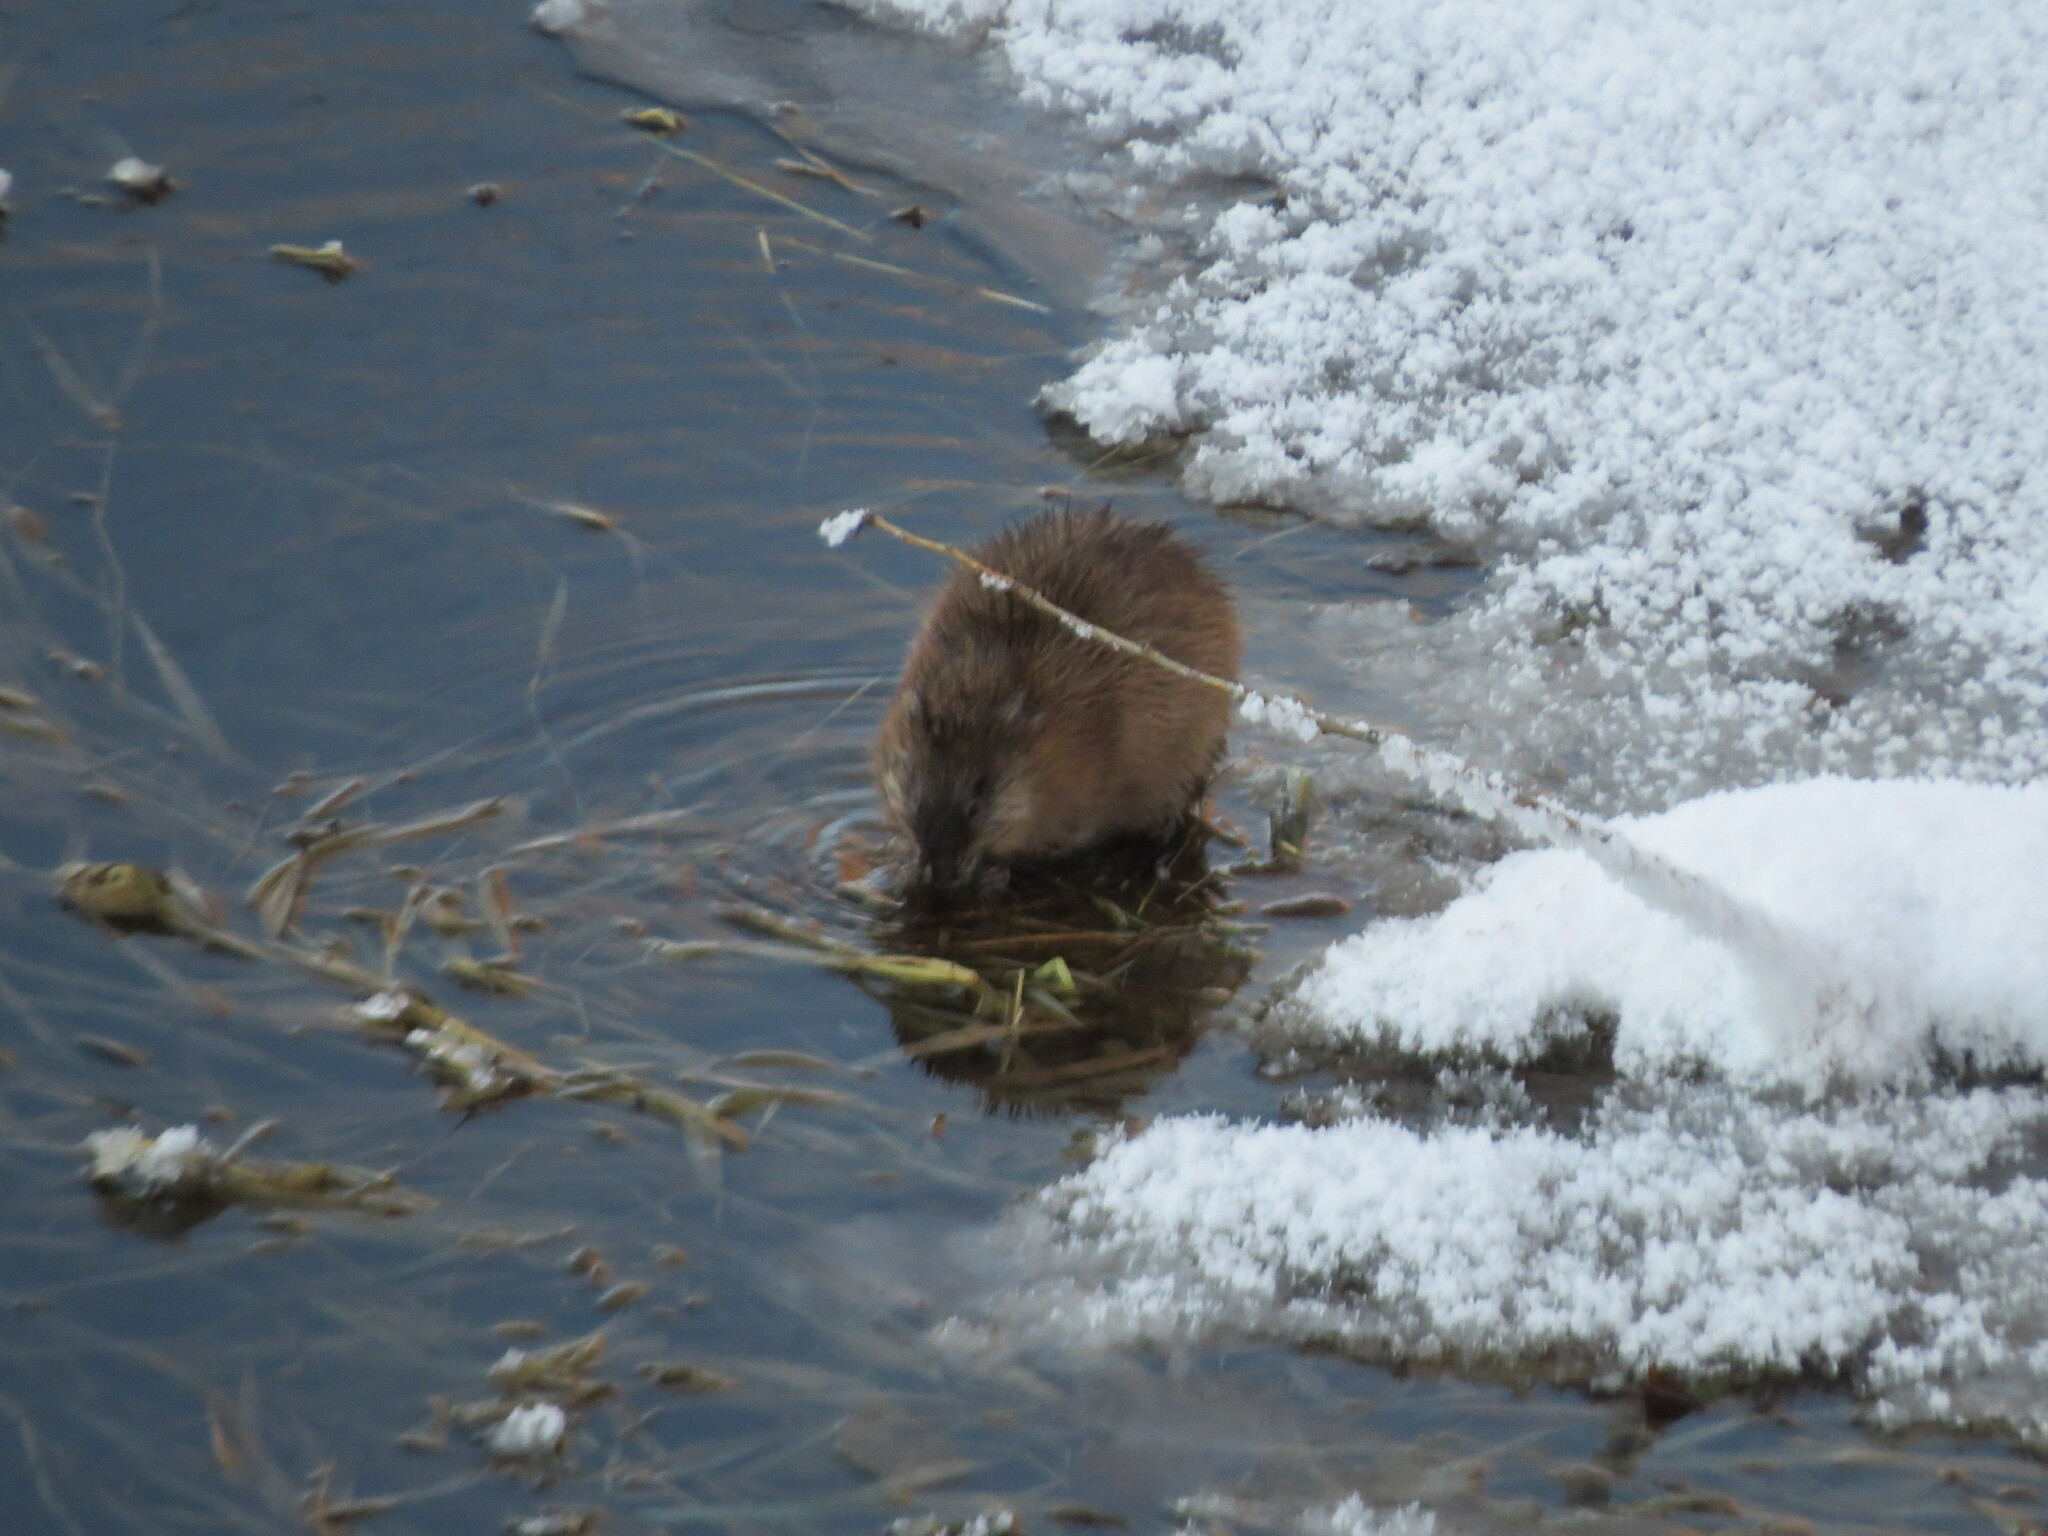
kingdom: Animalia
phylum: Chordata
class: Mammalia
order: Rodentia
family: Cricetidae
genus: Ondatra
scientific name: Ondatra zibethicus
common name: Muskrat
